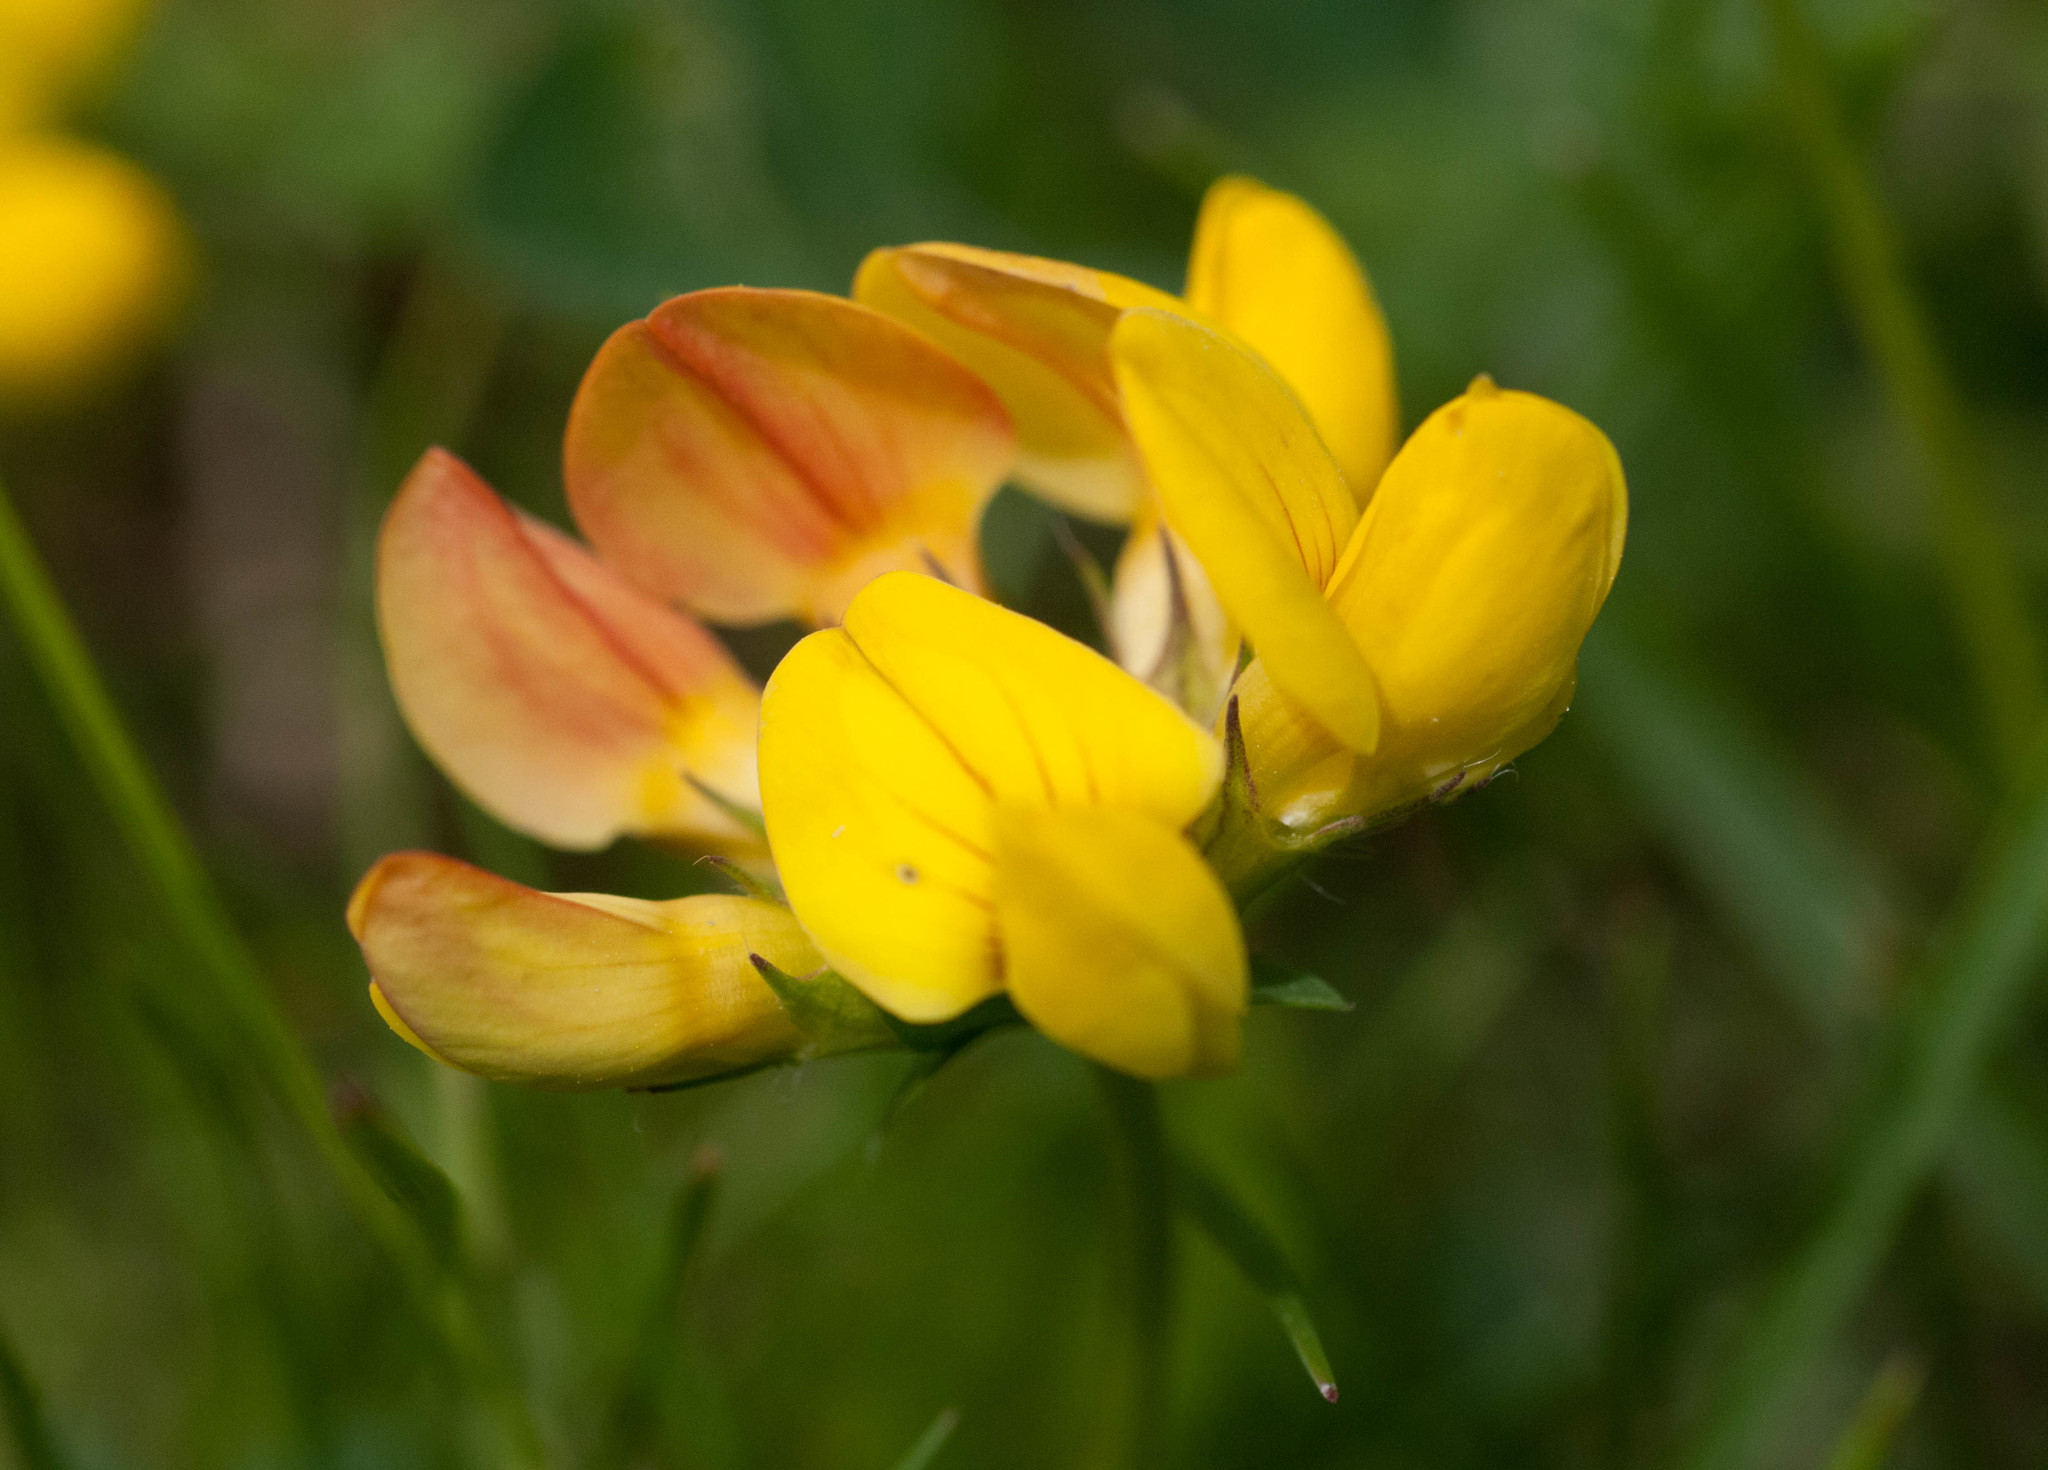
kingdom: Plantae
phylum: Tracheophyta
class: Magnoliopsida
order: Fabales
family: Fabaceae
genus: Lotus
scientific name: Lotus corniculatus
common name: Common bird's-foot-trefoil
